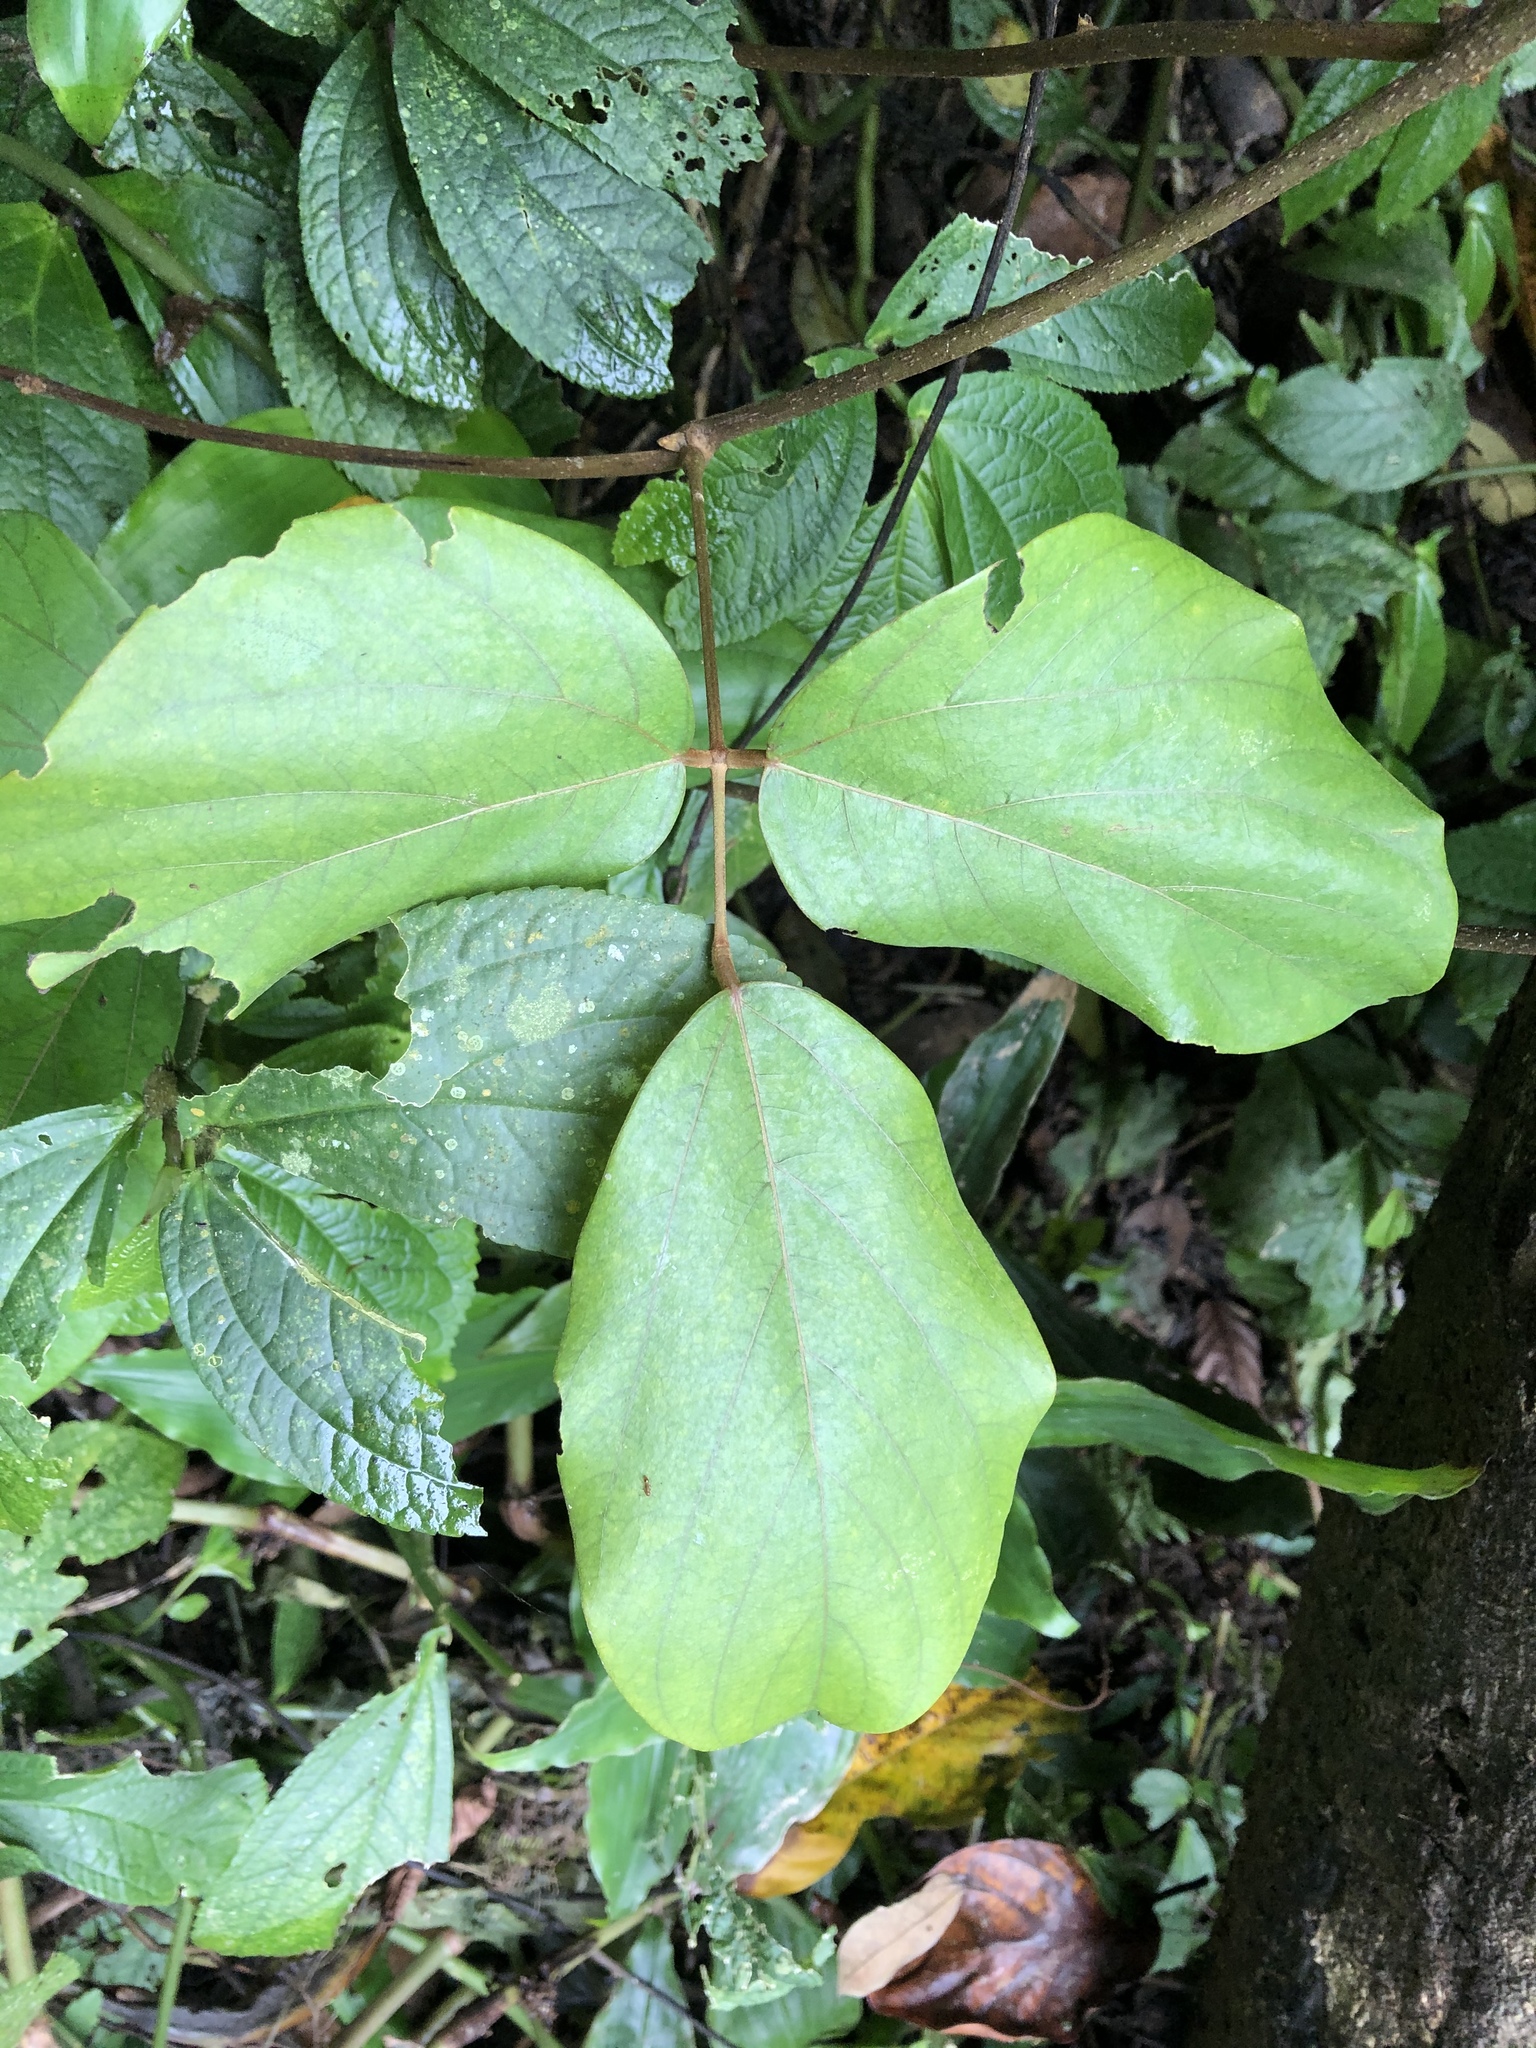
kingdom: Plantae
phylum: Tracheophyta
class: Magnoliopsida
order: Fabales
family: Fabaceae
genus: Mucuna
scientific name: Mucuna macrocarpa
